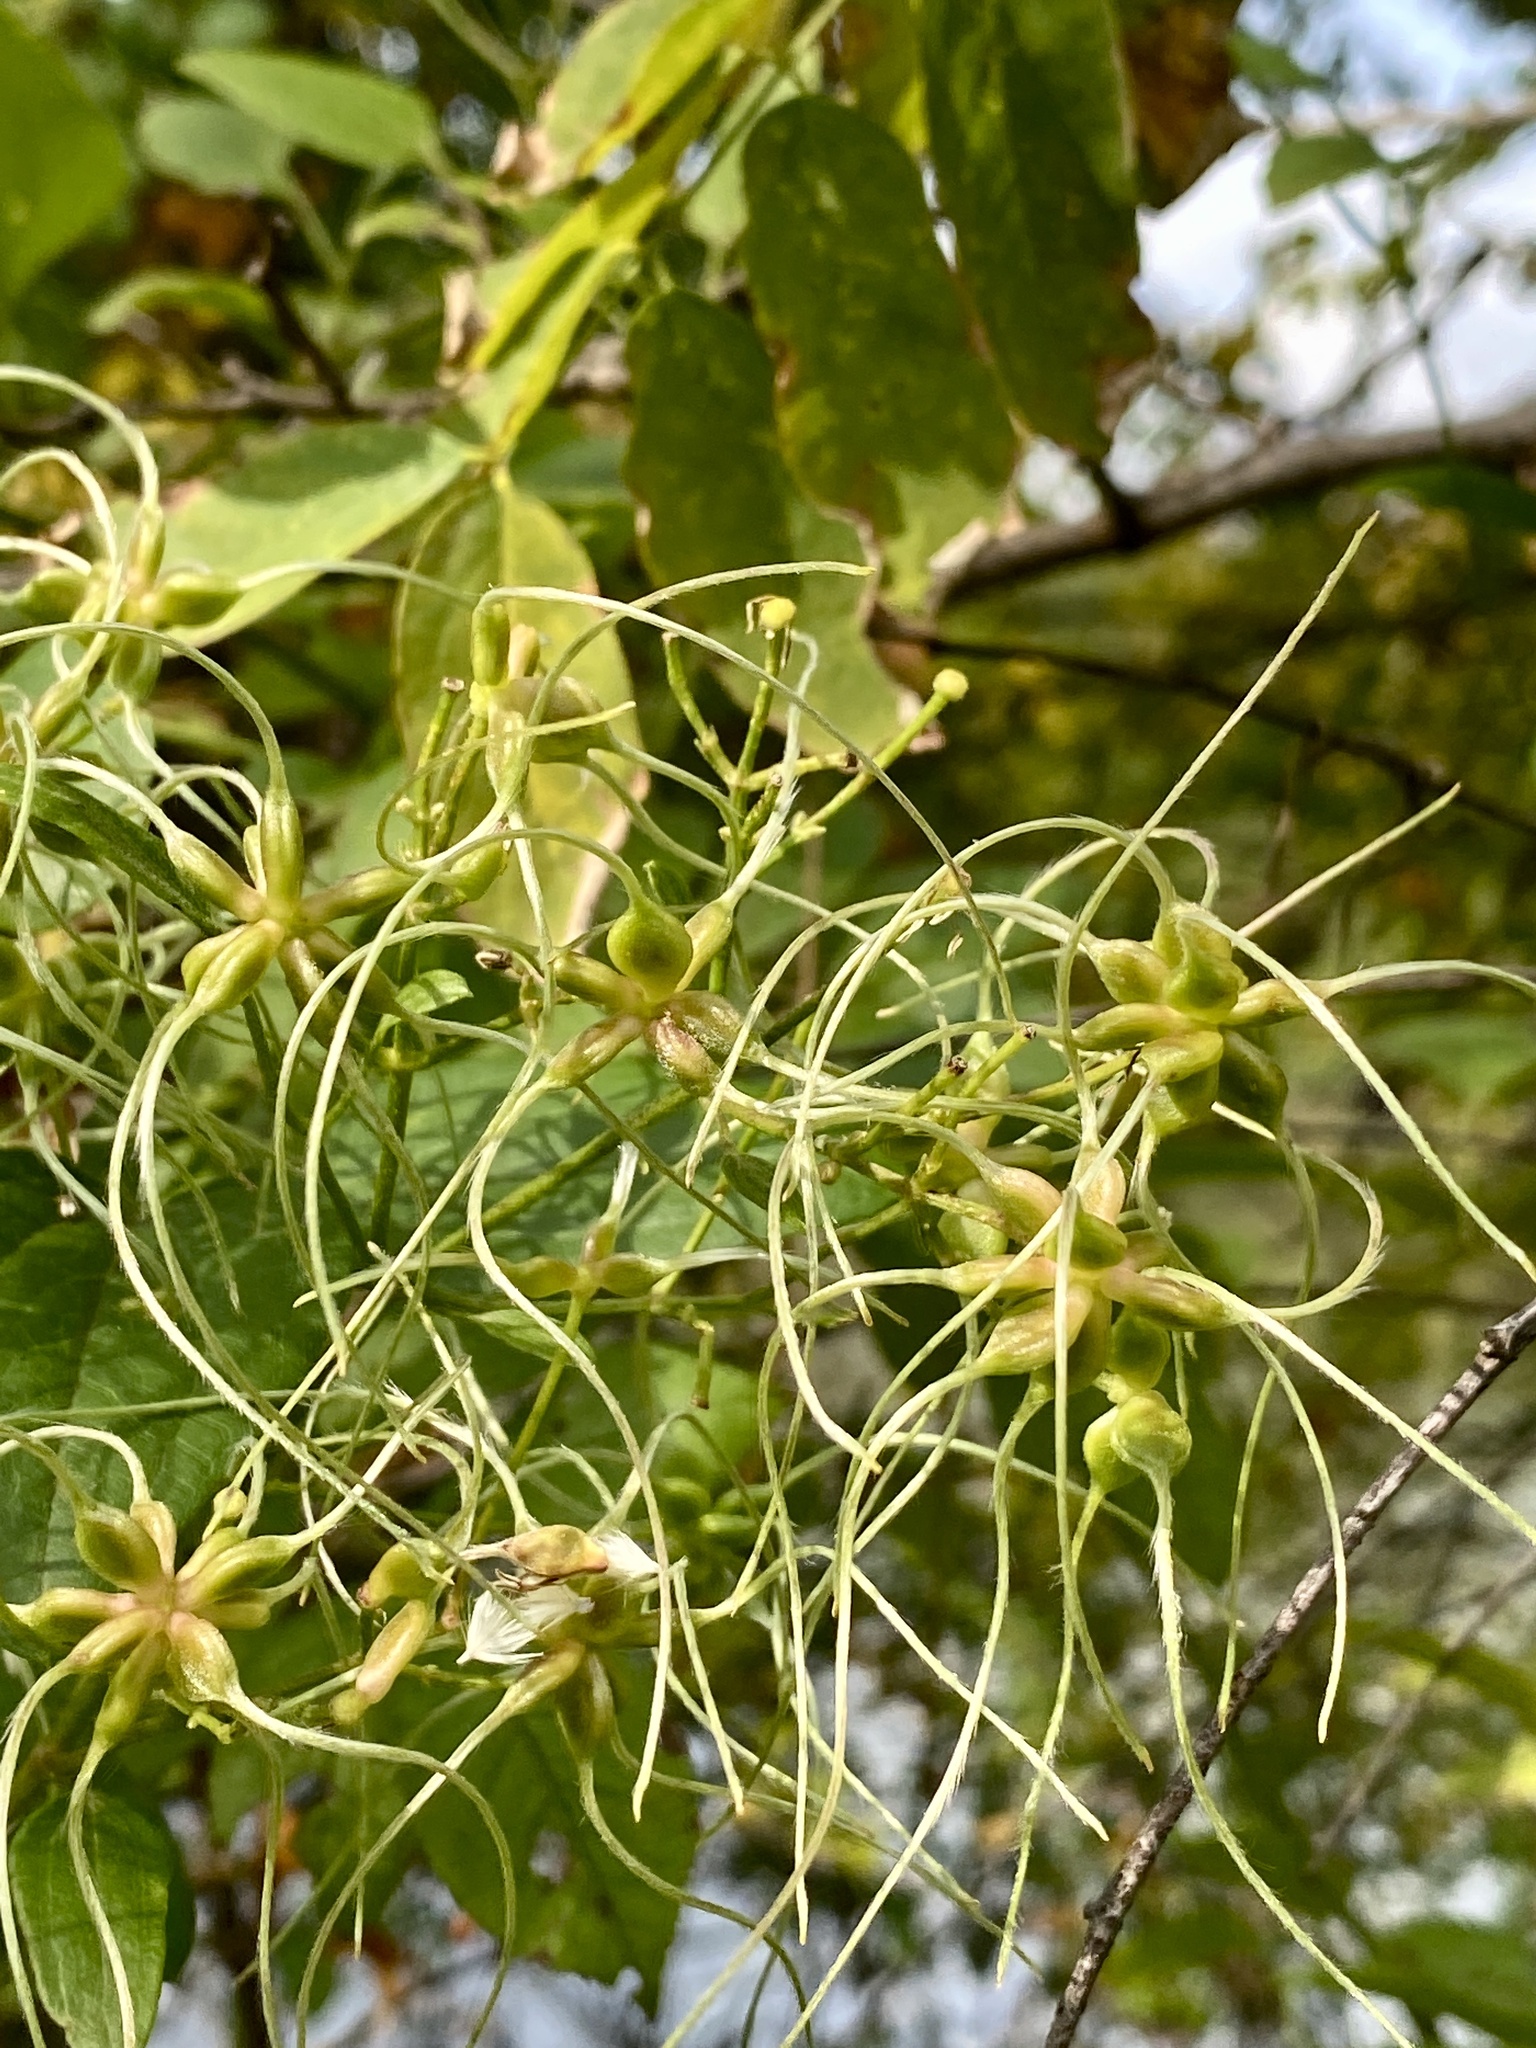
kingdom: Plantae
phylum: Tracheophyta
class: Magnoliopsida
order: Ranunculales
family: Ranunculaceae
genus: Clematis
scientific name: Clematis terniflora
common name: Sweet autumn clematis
